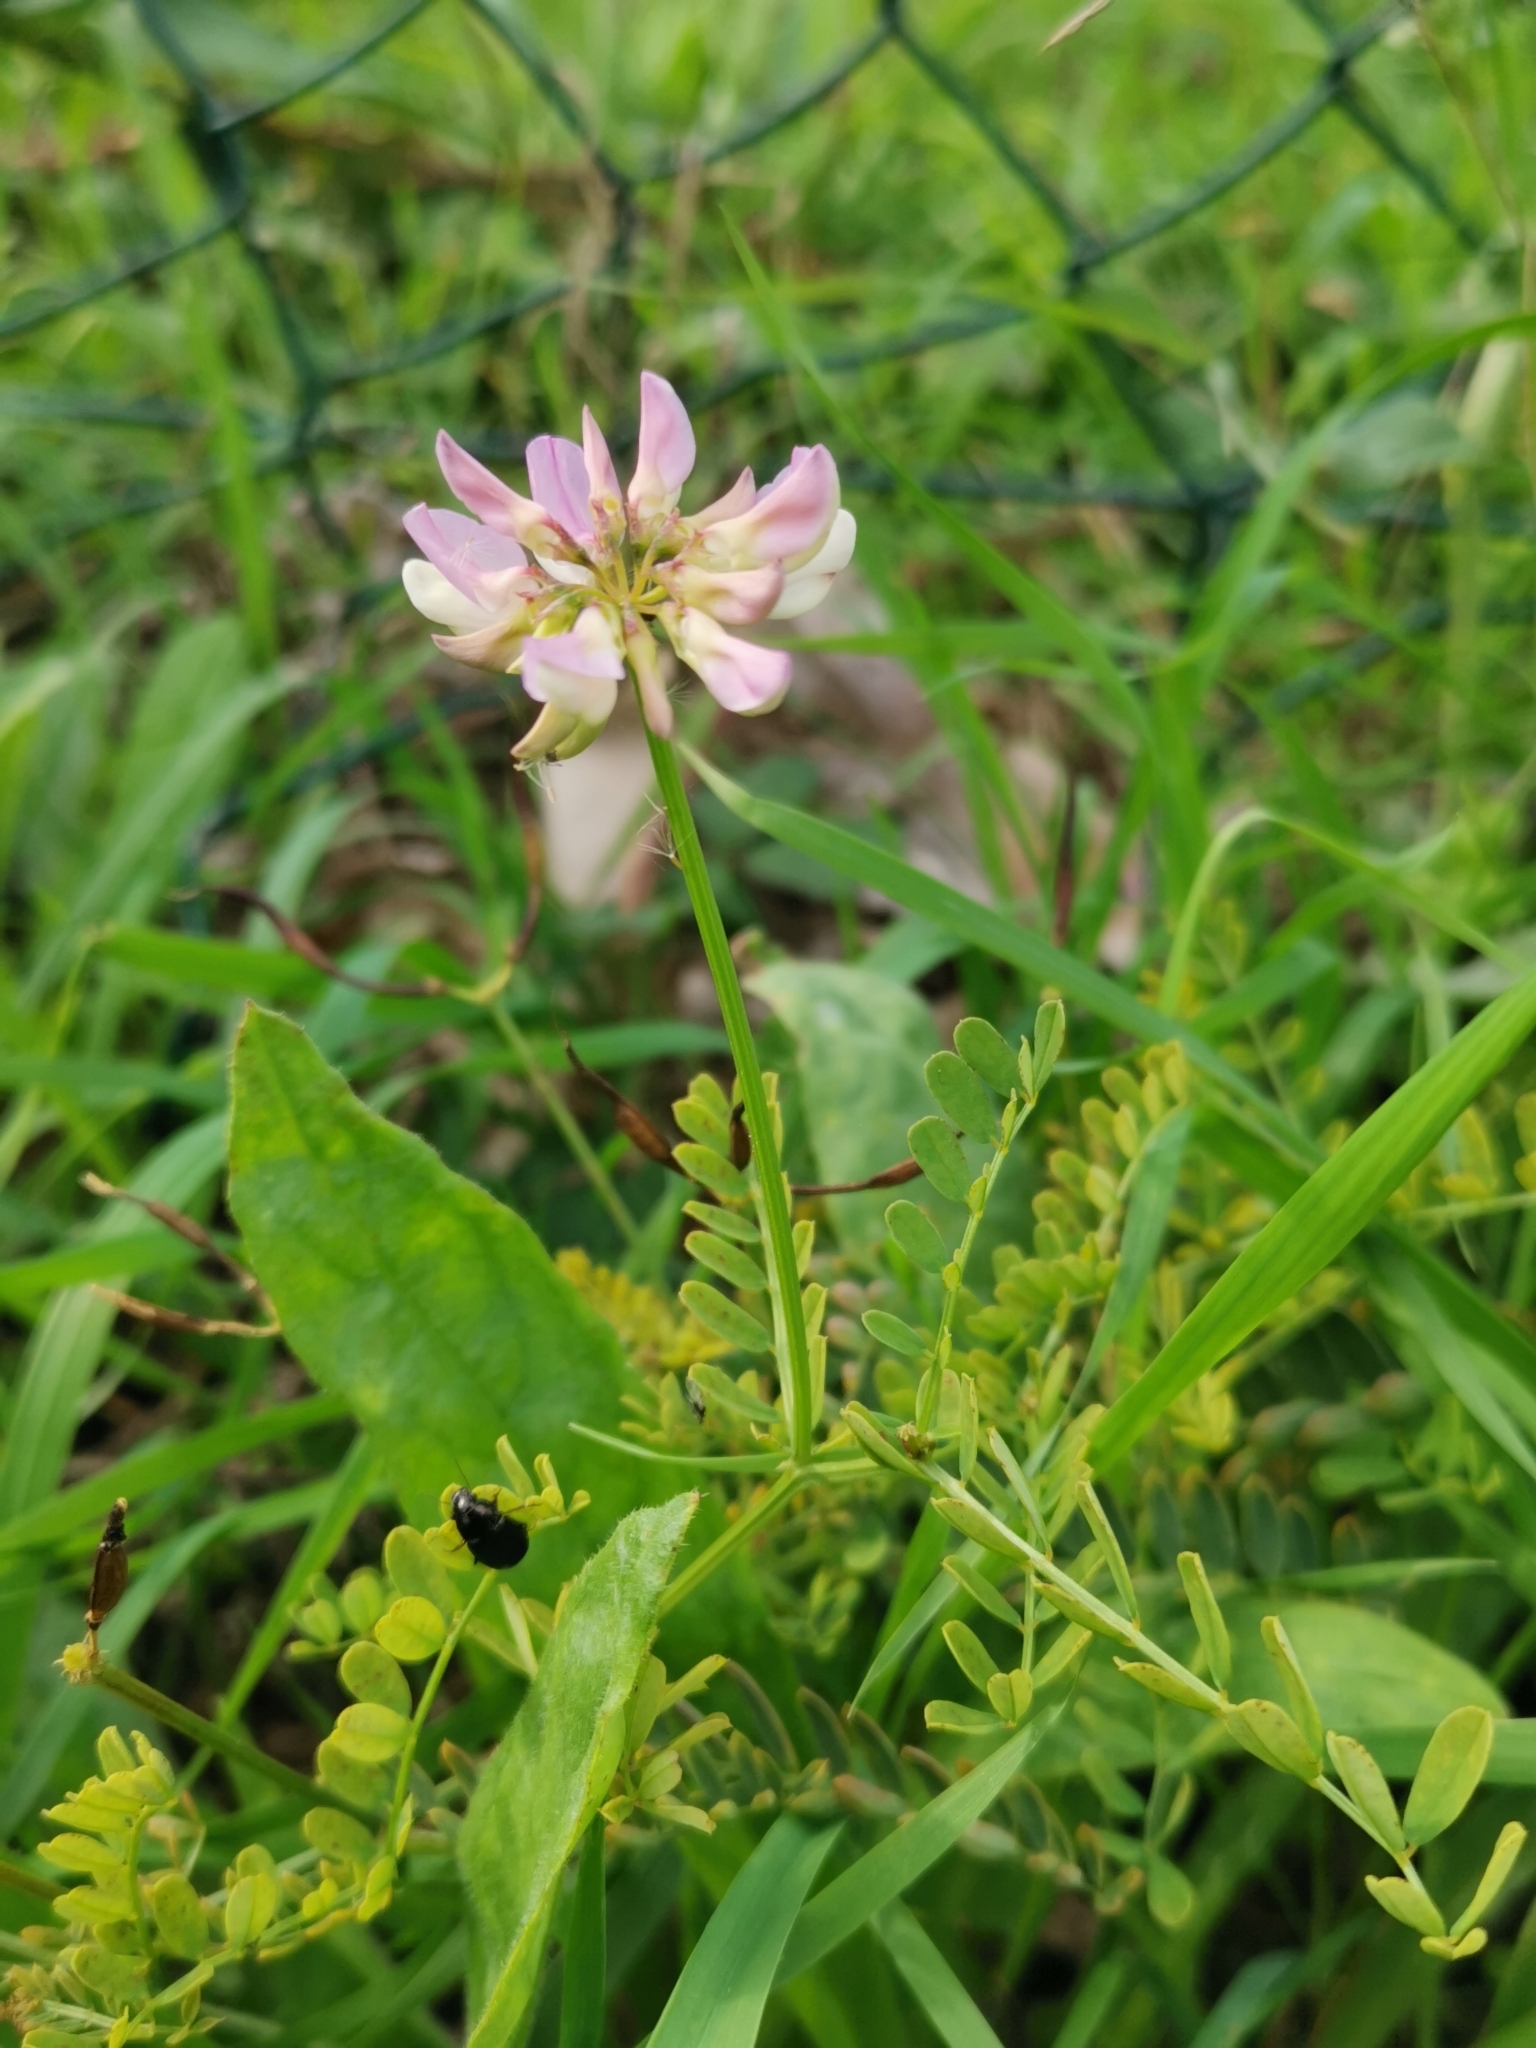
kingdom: Plantae
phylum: Tracheophyta
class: Magnoliopsida
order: Fabales
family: Fabaceae
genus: Coronilla
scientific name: Coronilla varia
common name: Crownvetch
